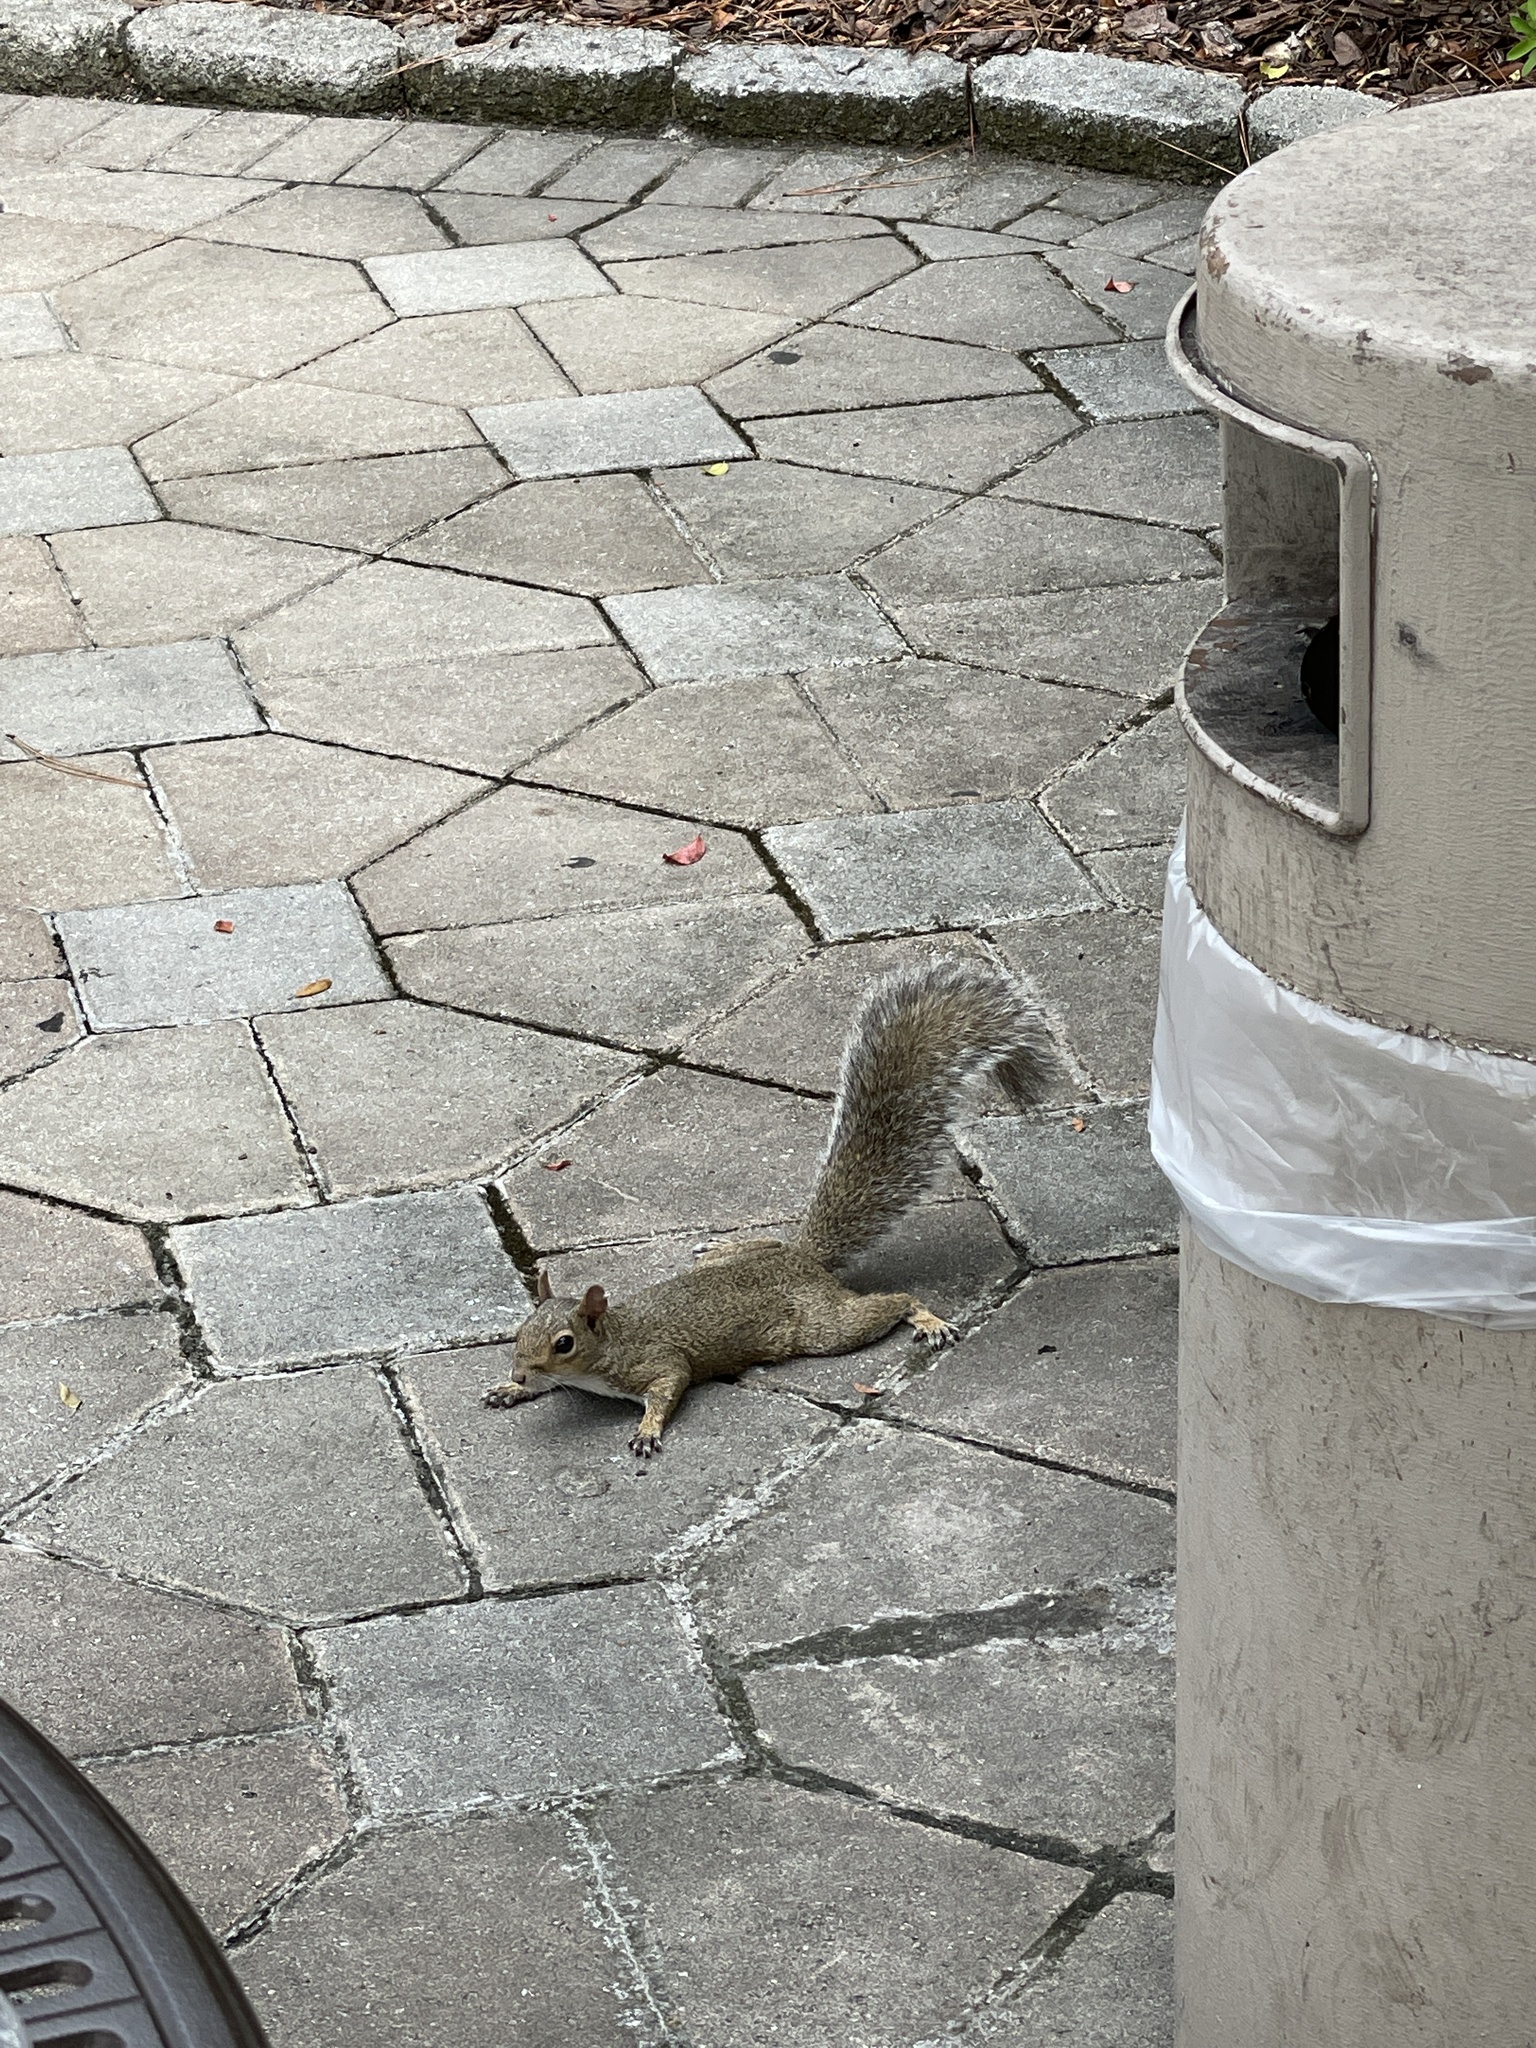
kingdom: Animalia
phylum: Chordata
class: Mammalia
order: Rodentia
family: Sciuridae
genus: Sciurus
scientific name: Sciurus carolinensis
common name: Eastern gray squirrel
